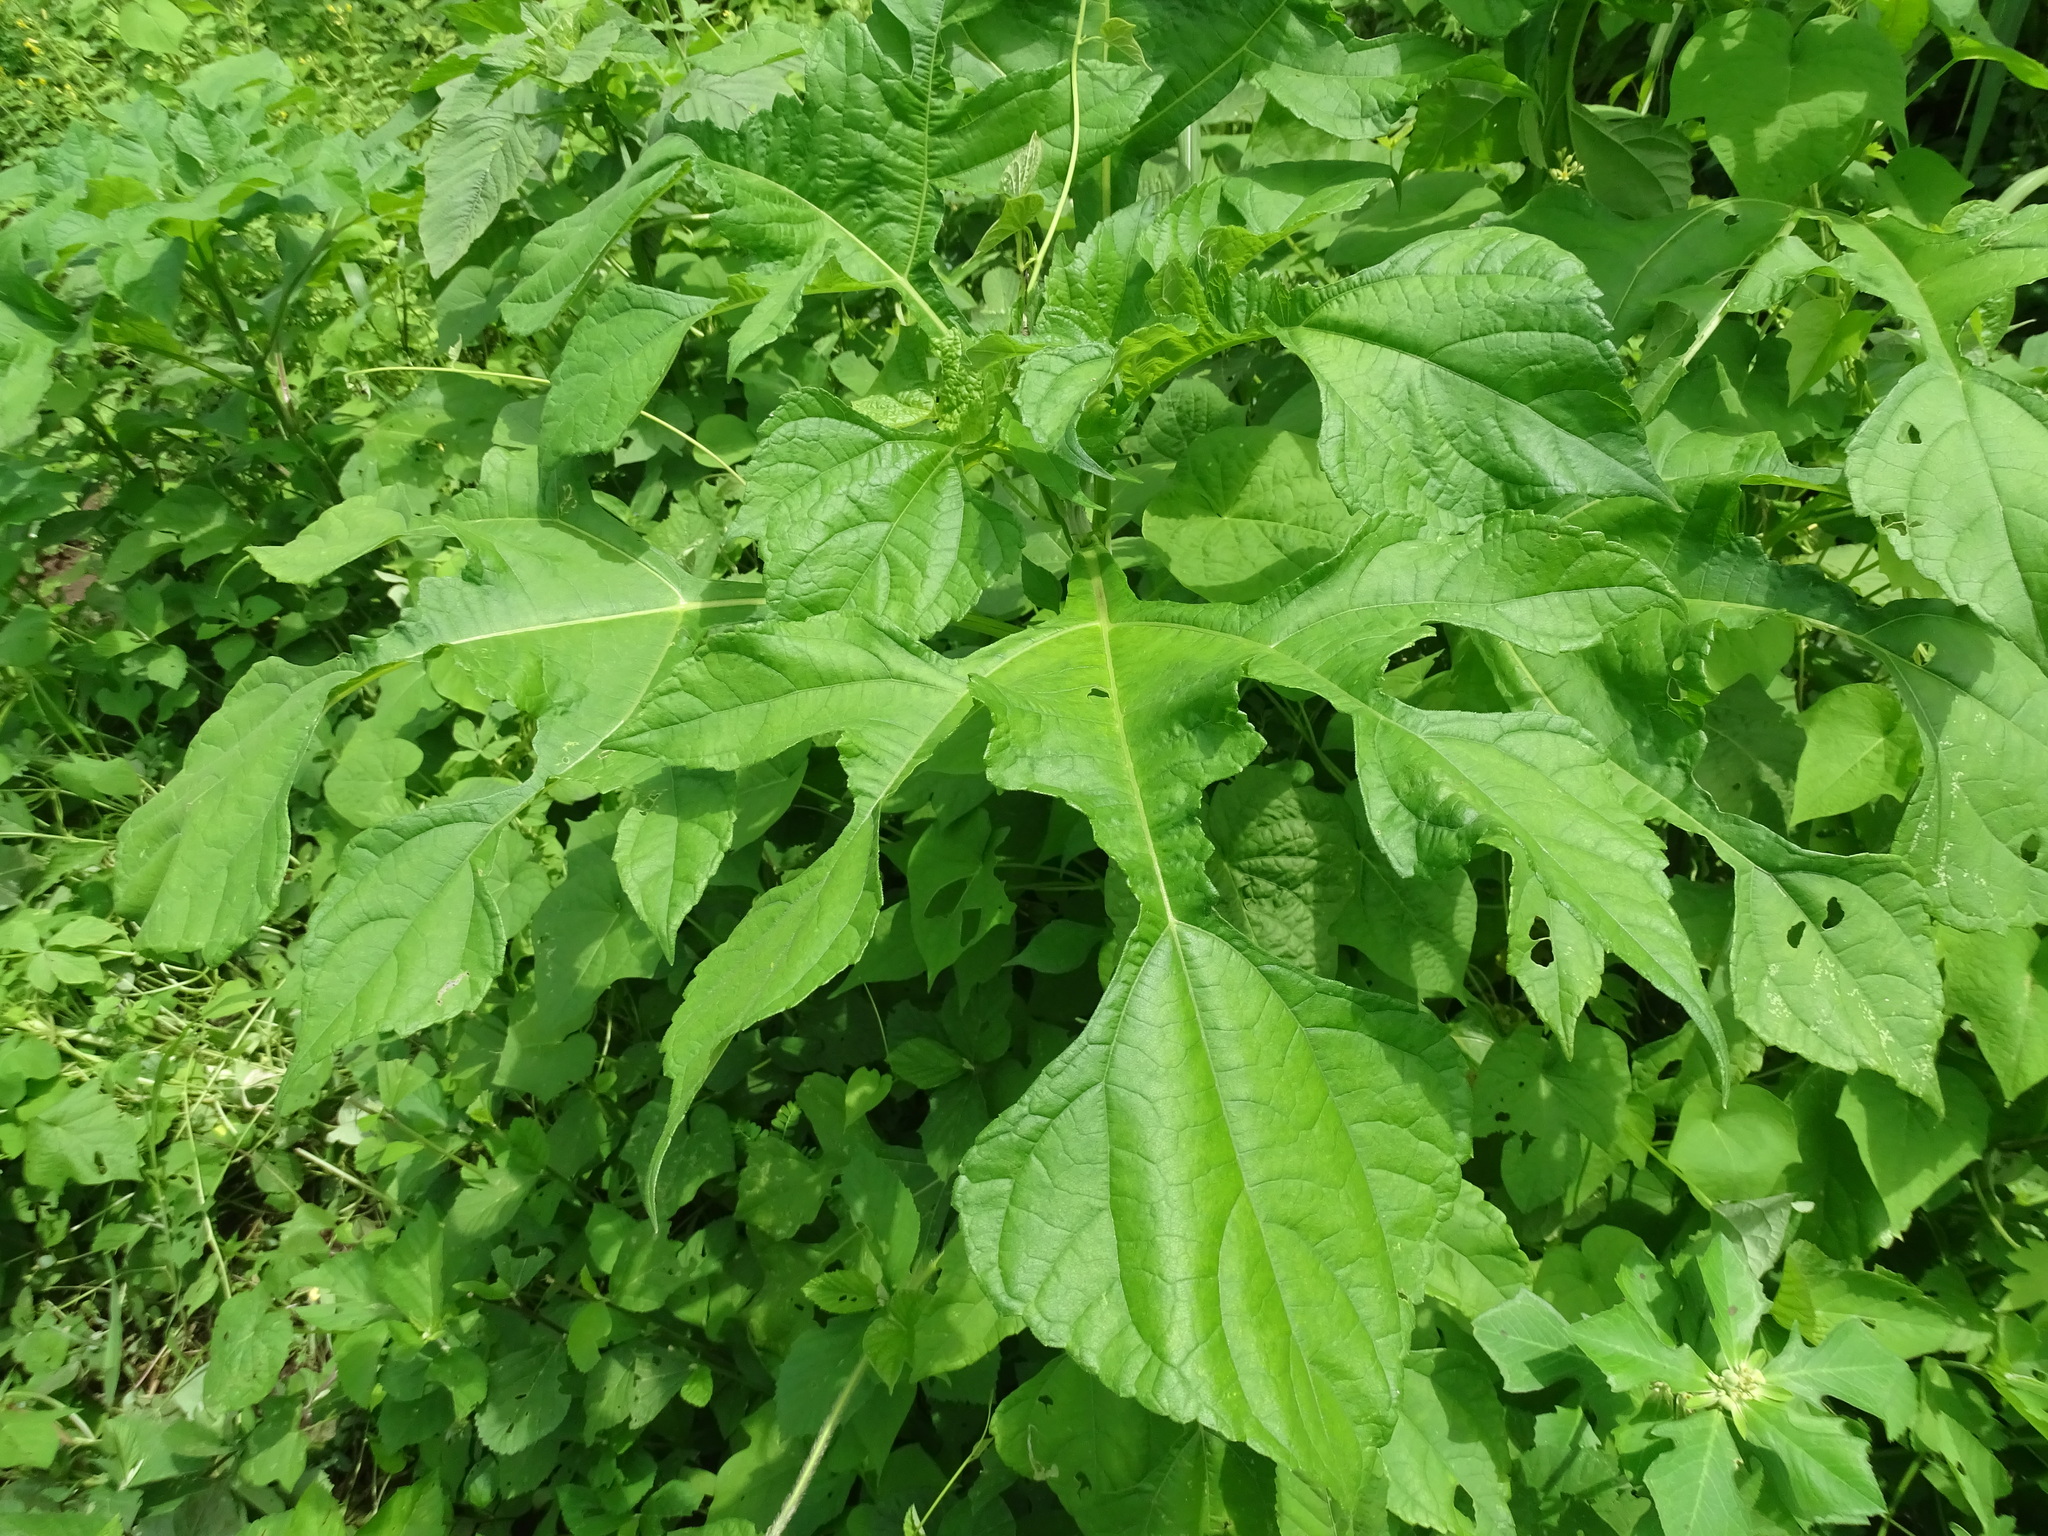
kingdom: Plantae
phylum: Tracheophyta
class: Magnoliopsida
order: Asterales
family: Asteraceae
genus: Tithonia
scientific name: Tithonia rotundifolia
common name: Sunflower
